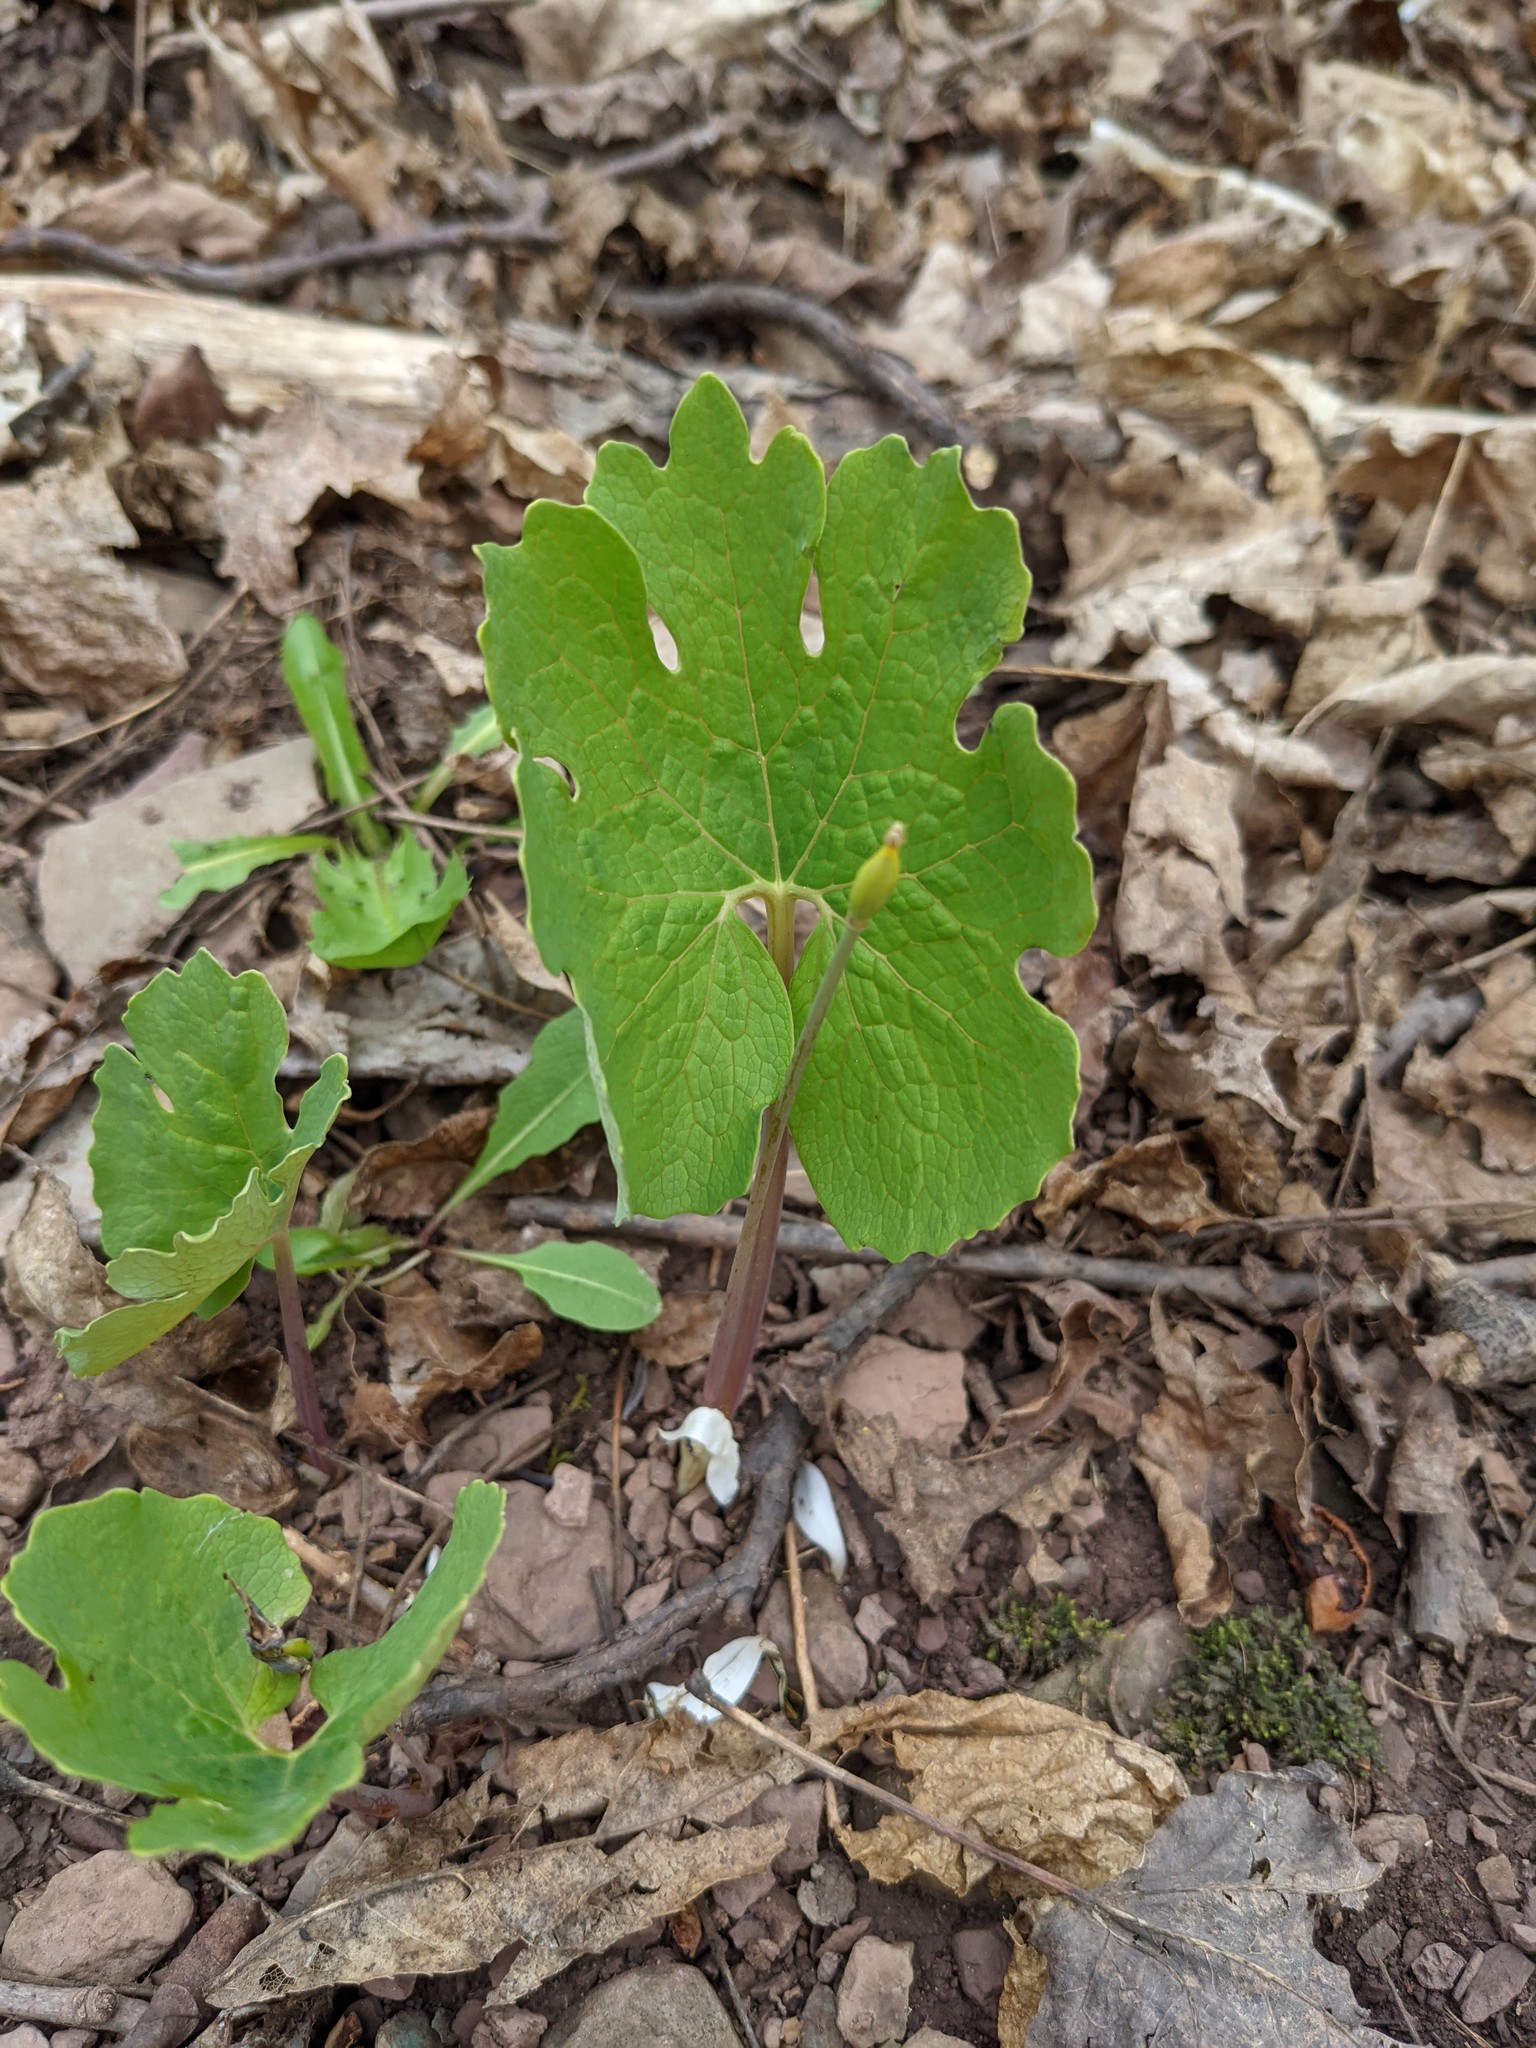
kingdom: Plantae
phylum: Tracheophyta
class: Magnoliopsida
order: Ranunculales
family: Papaveraceae
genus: Sanguinaria
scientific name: Sanguinaria canadensis
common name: Bloodroot
